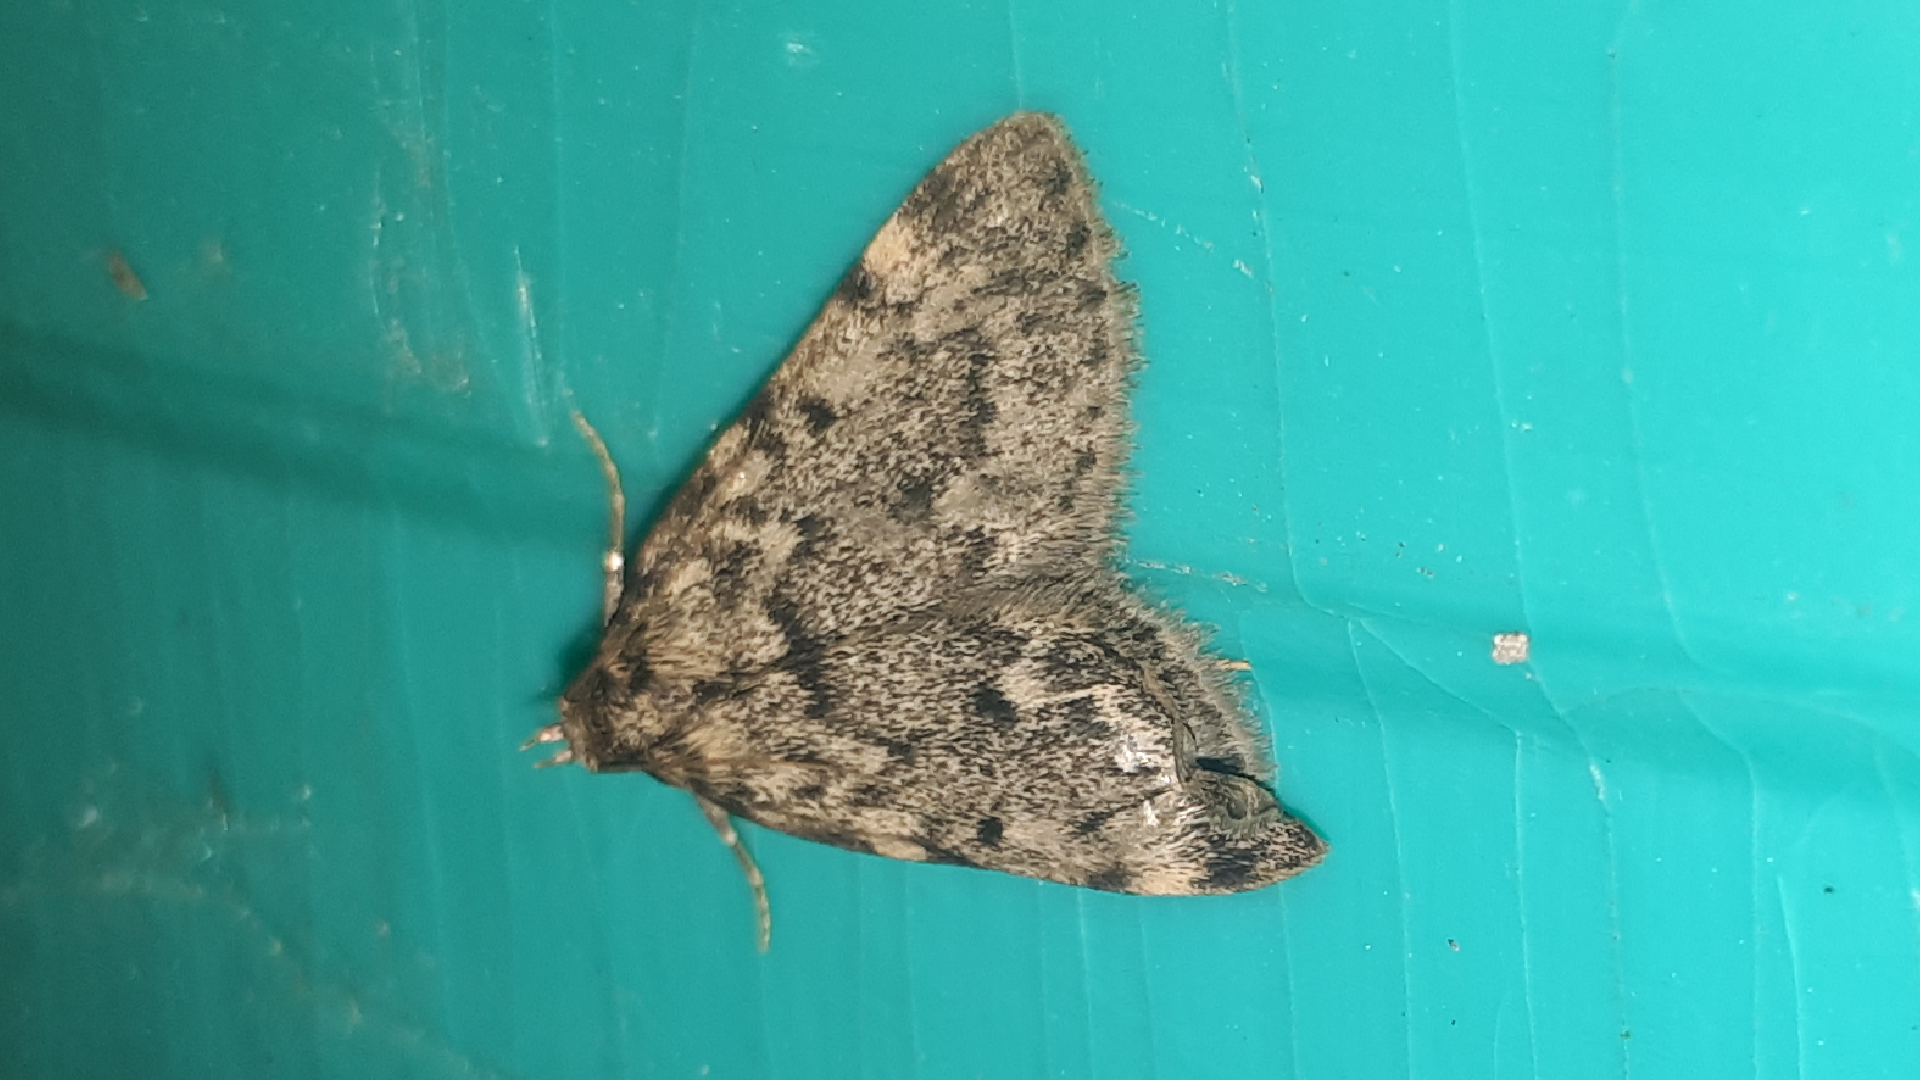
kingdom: Animalia
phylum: Arthropoda
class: Insecta
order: Lepidoptera
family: Pyralidae
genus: Aglossa
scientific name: Aglossa pinguinalis
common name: Large tabby
